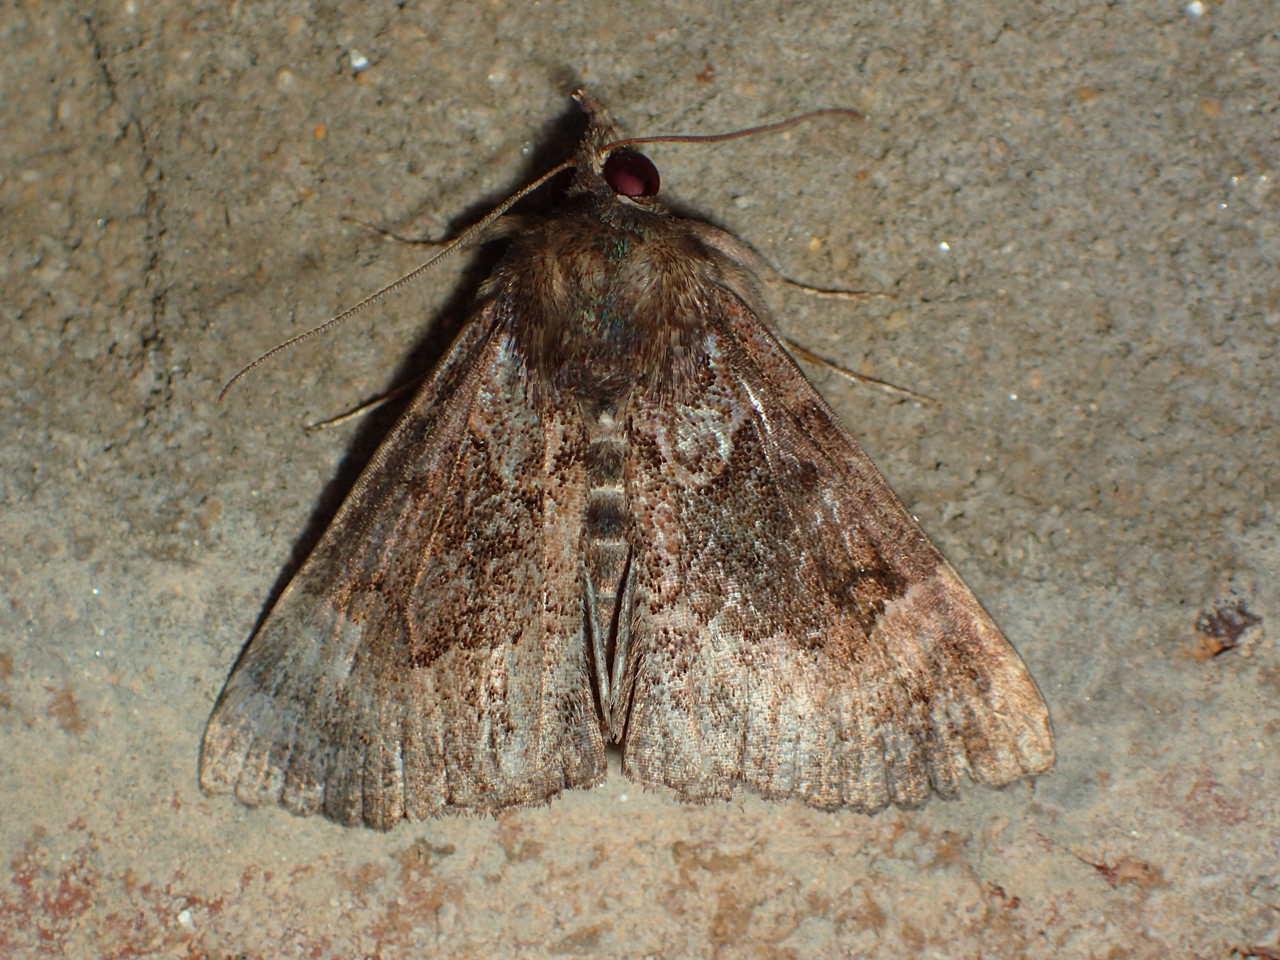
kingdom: Animalia
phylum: Arthropoda
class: Insecta
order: Lepidoptera
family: Erebidae
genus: Hypena
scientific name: Hypena palparia
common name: Mottled bomolocha moth
